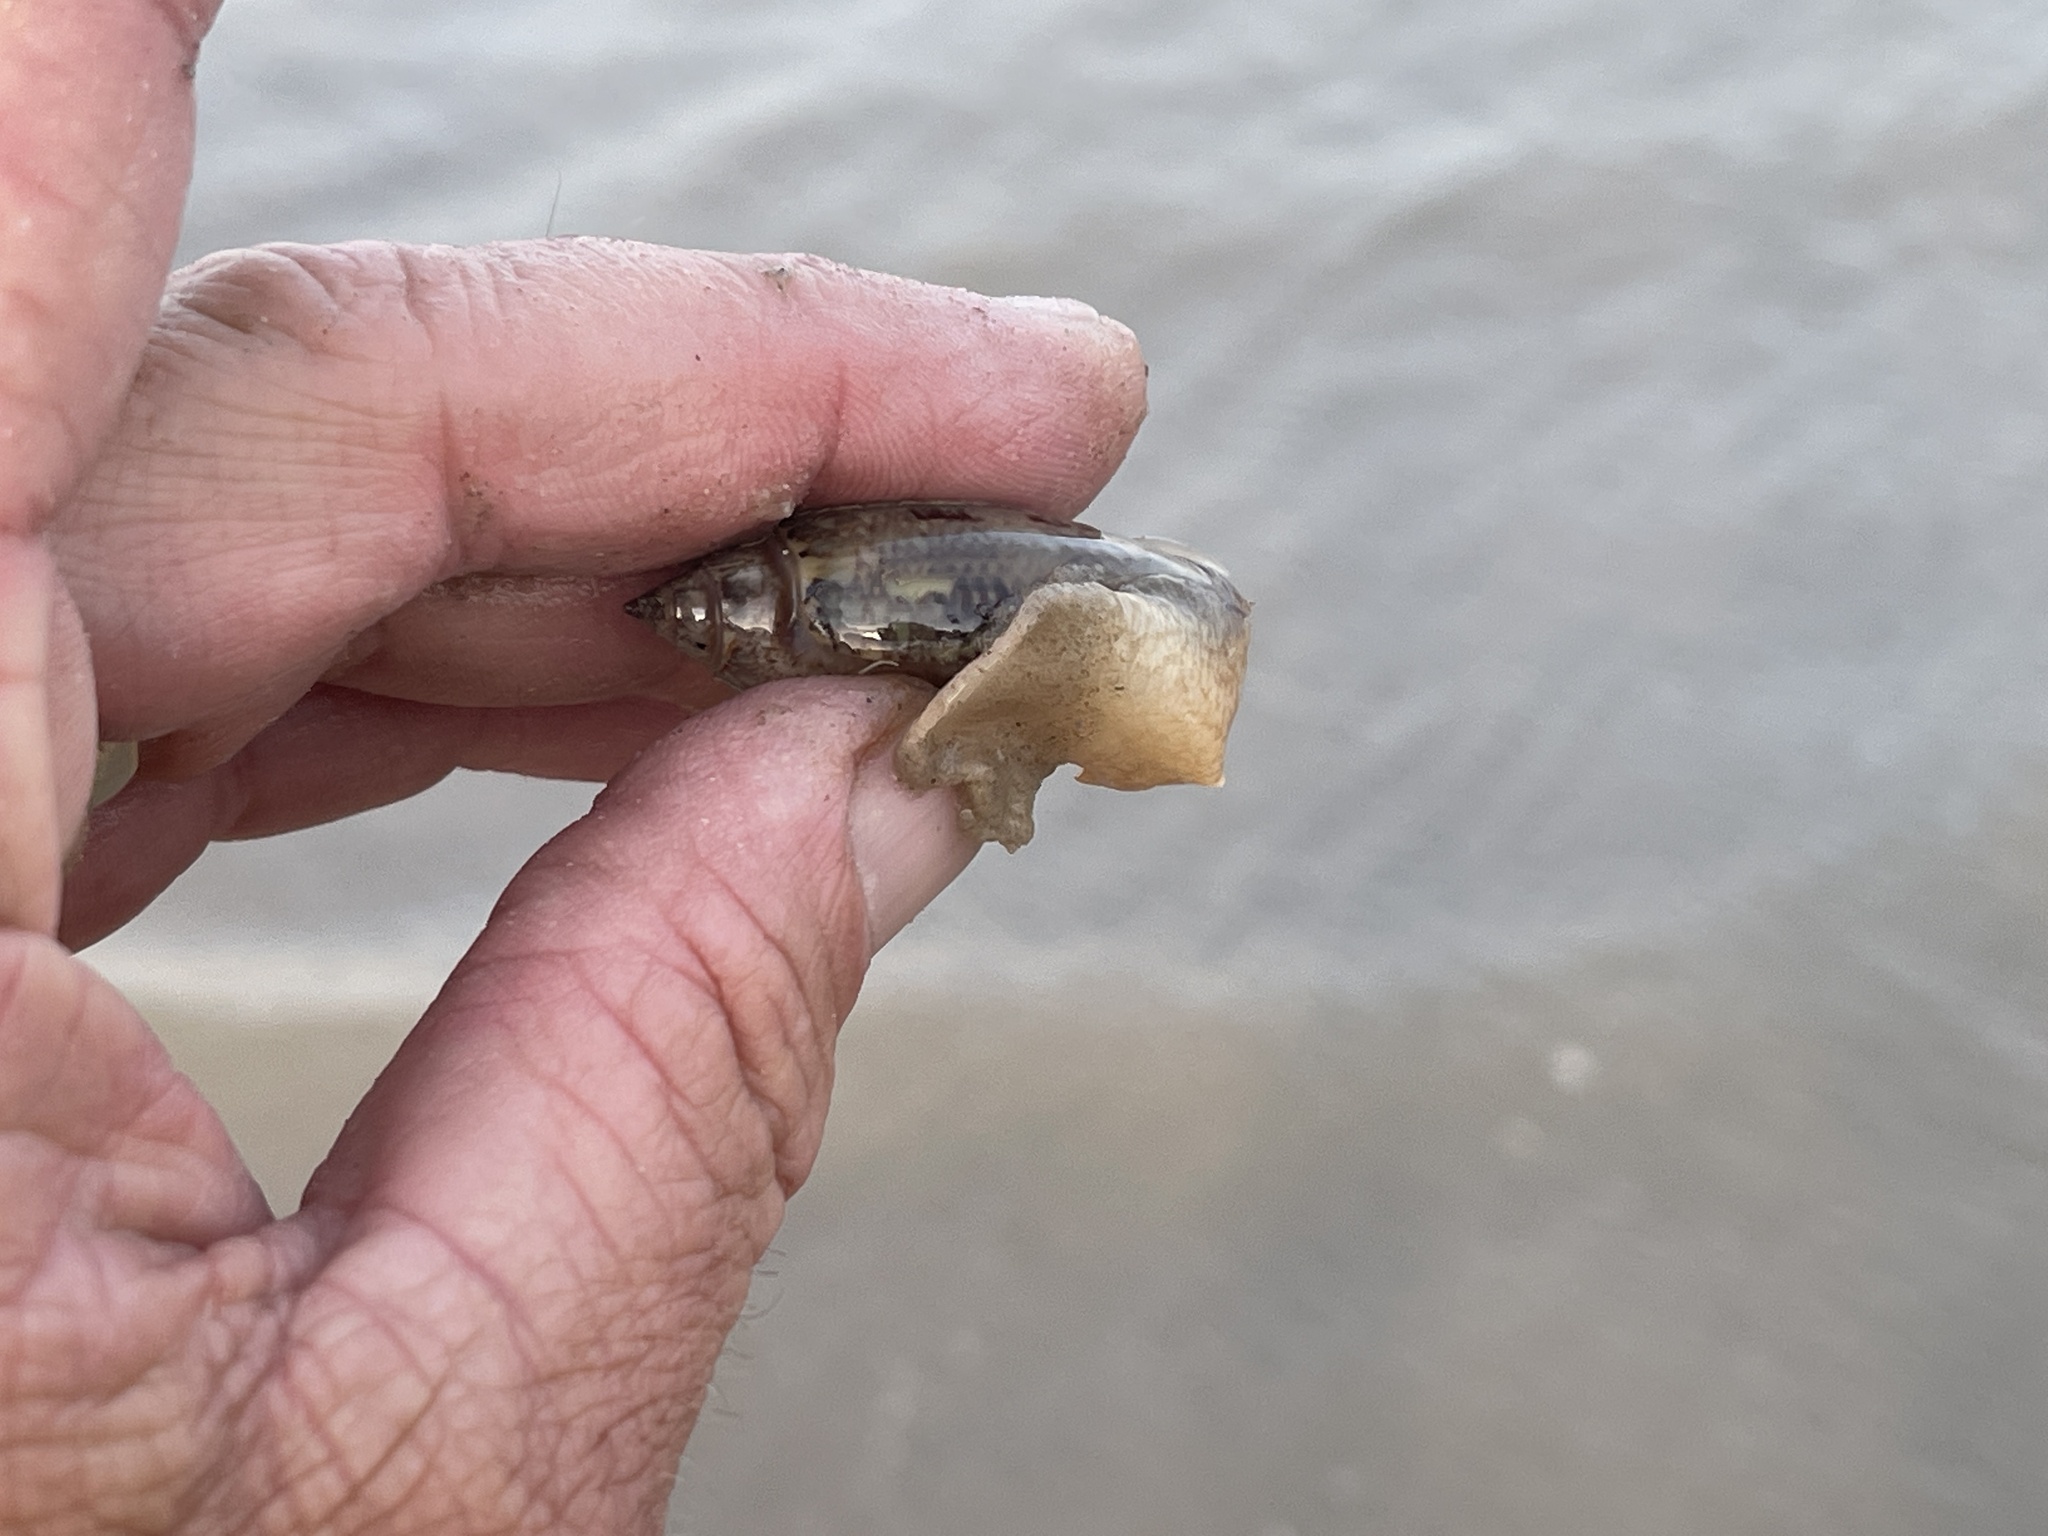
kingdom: Animalia
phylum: Mollusca
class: Gastropoda
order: Neogastropoda
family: Olividae
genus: Oliva
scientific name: Oliva sayana
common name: Lettered olive
